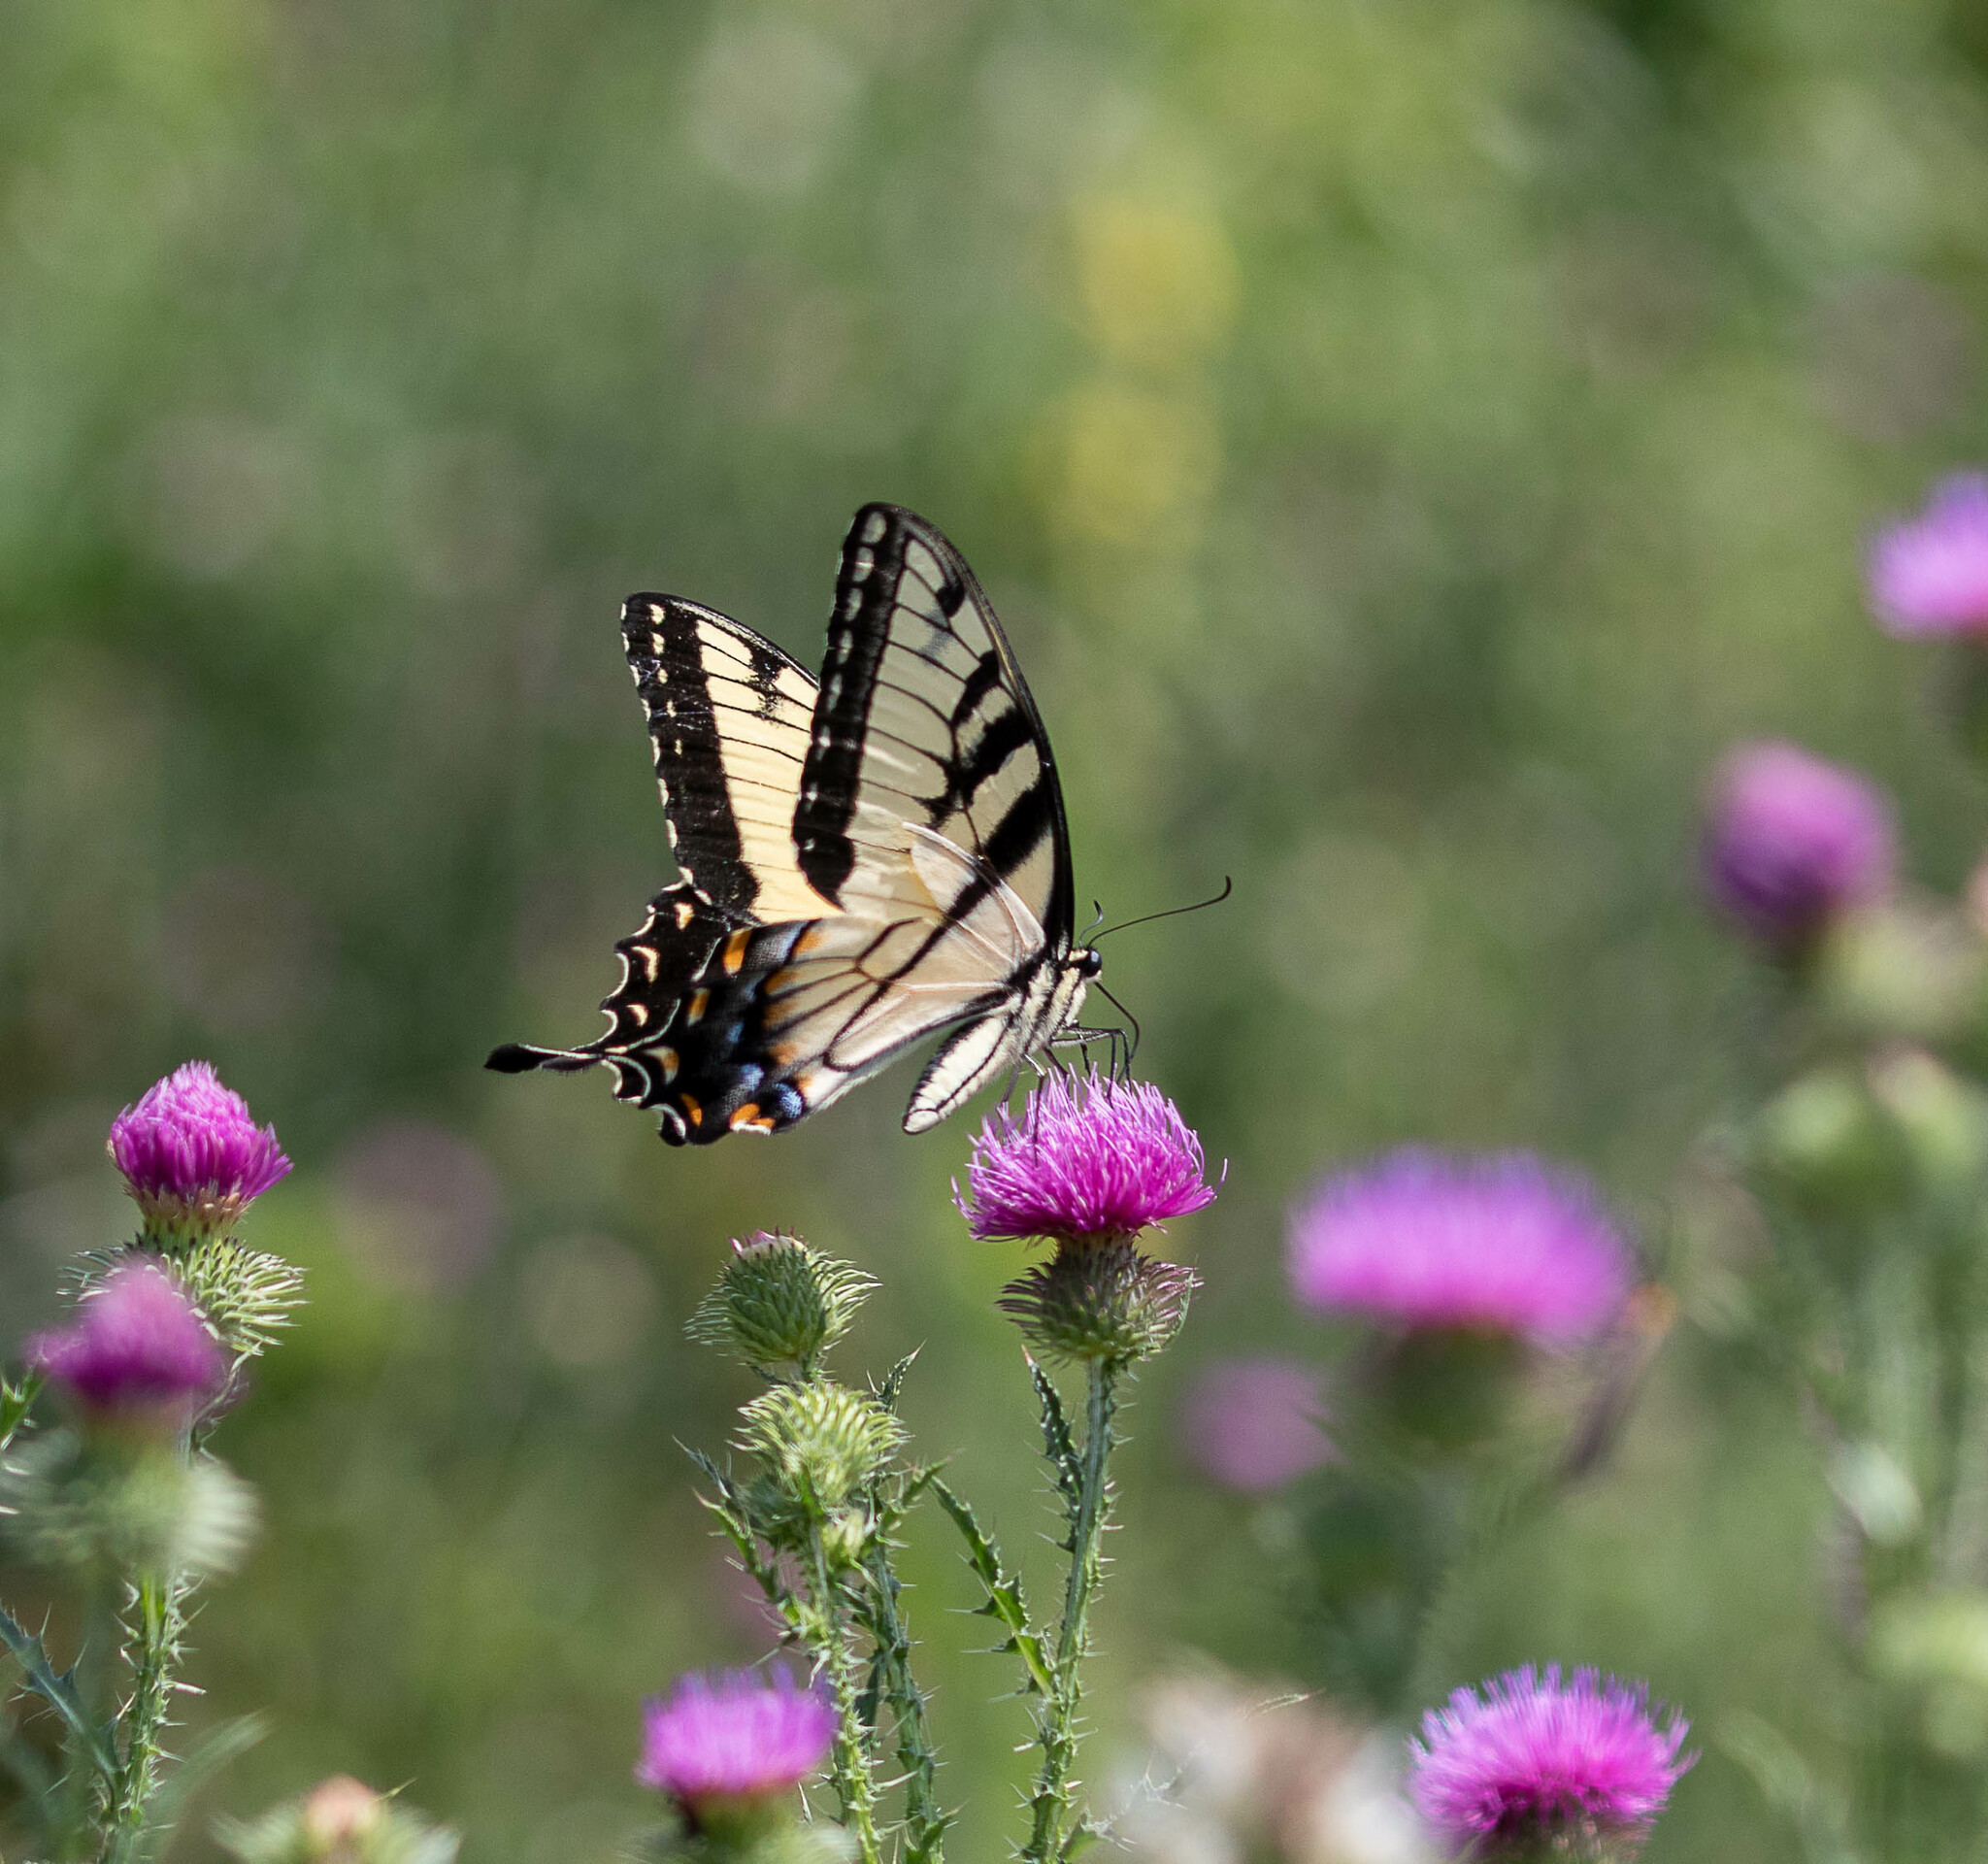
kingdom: Animalia
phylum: Arthropoda
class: Insecta
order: Lepidoptera
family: Papilionidae
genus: Papilio
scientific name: Papilio glaucus
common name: Tiger swallowtail
